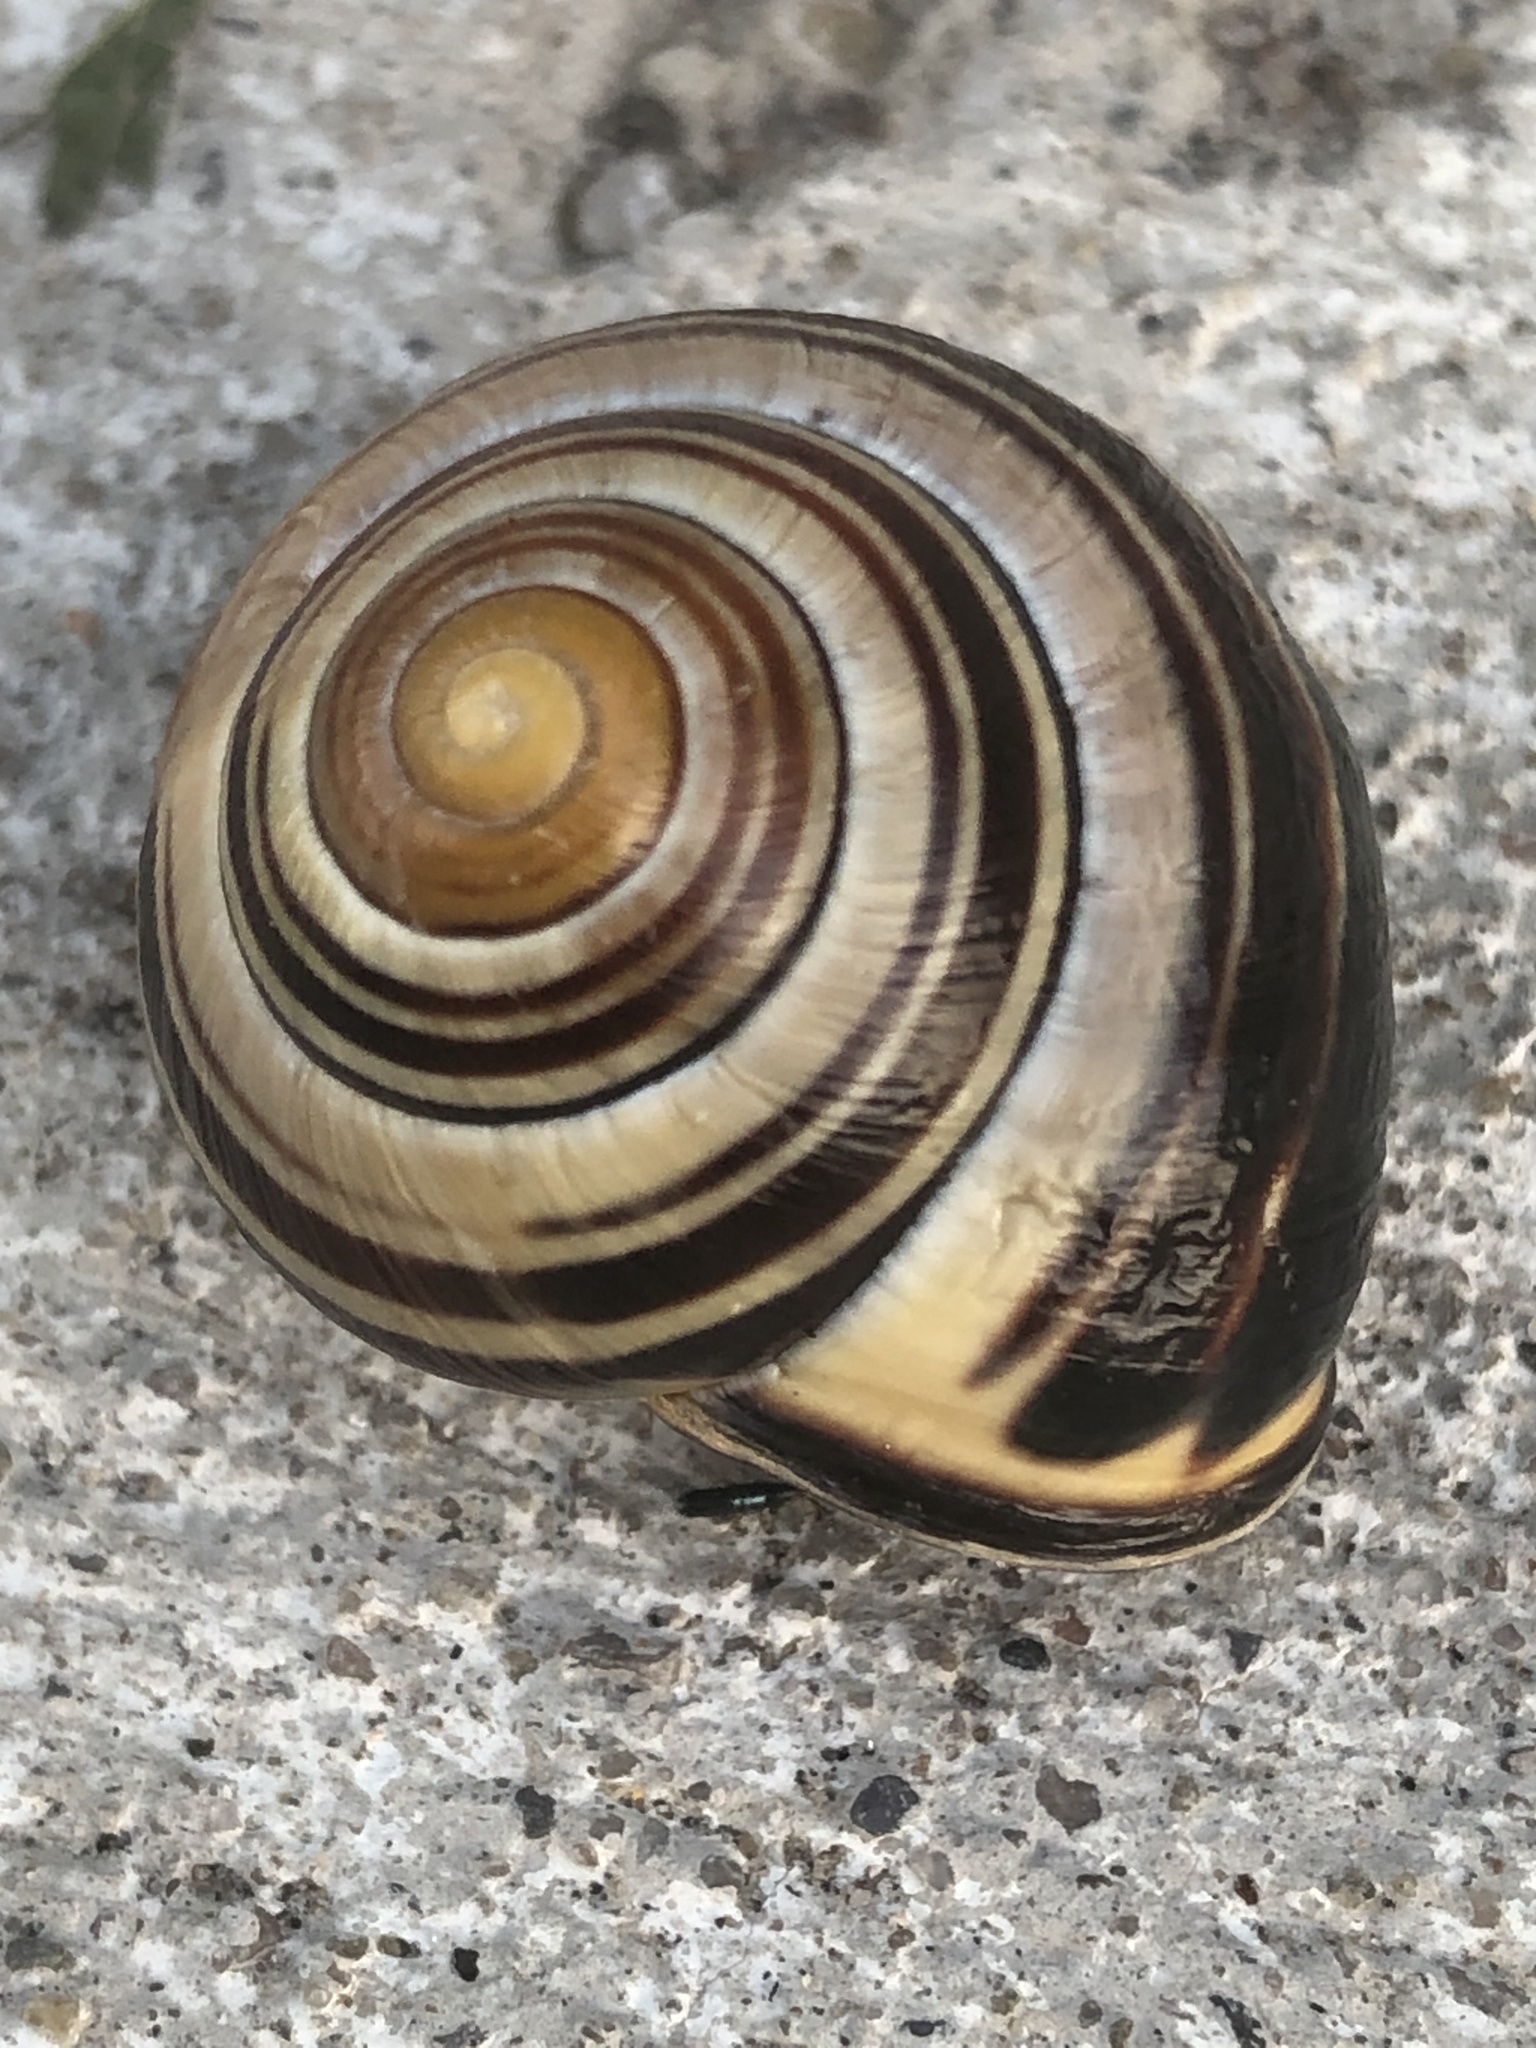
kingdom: Animalia
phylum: Mollusca
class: Gastropoda
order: Stylommatophora
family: Helicidae
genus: Cepaea
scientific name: Cepaea nemoralis
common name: Grovesnail
